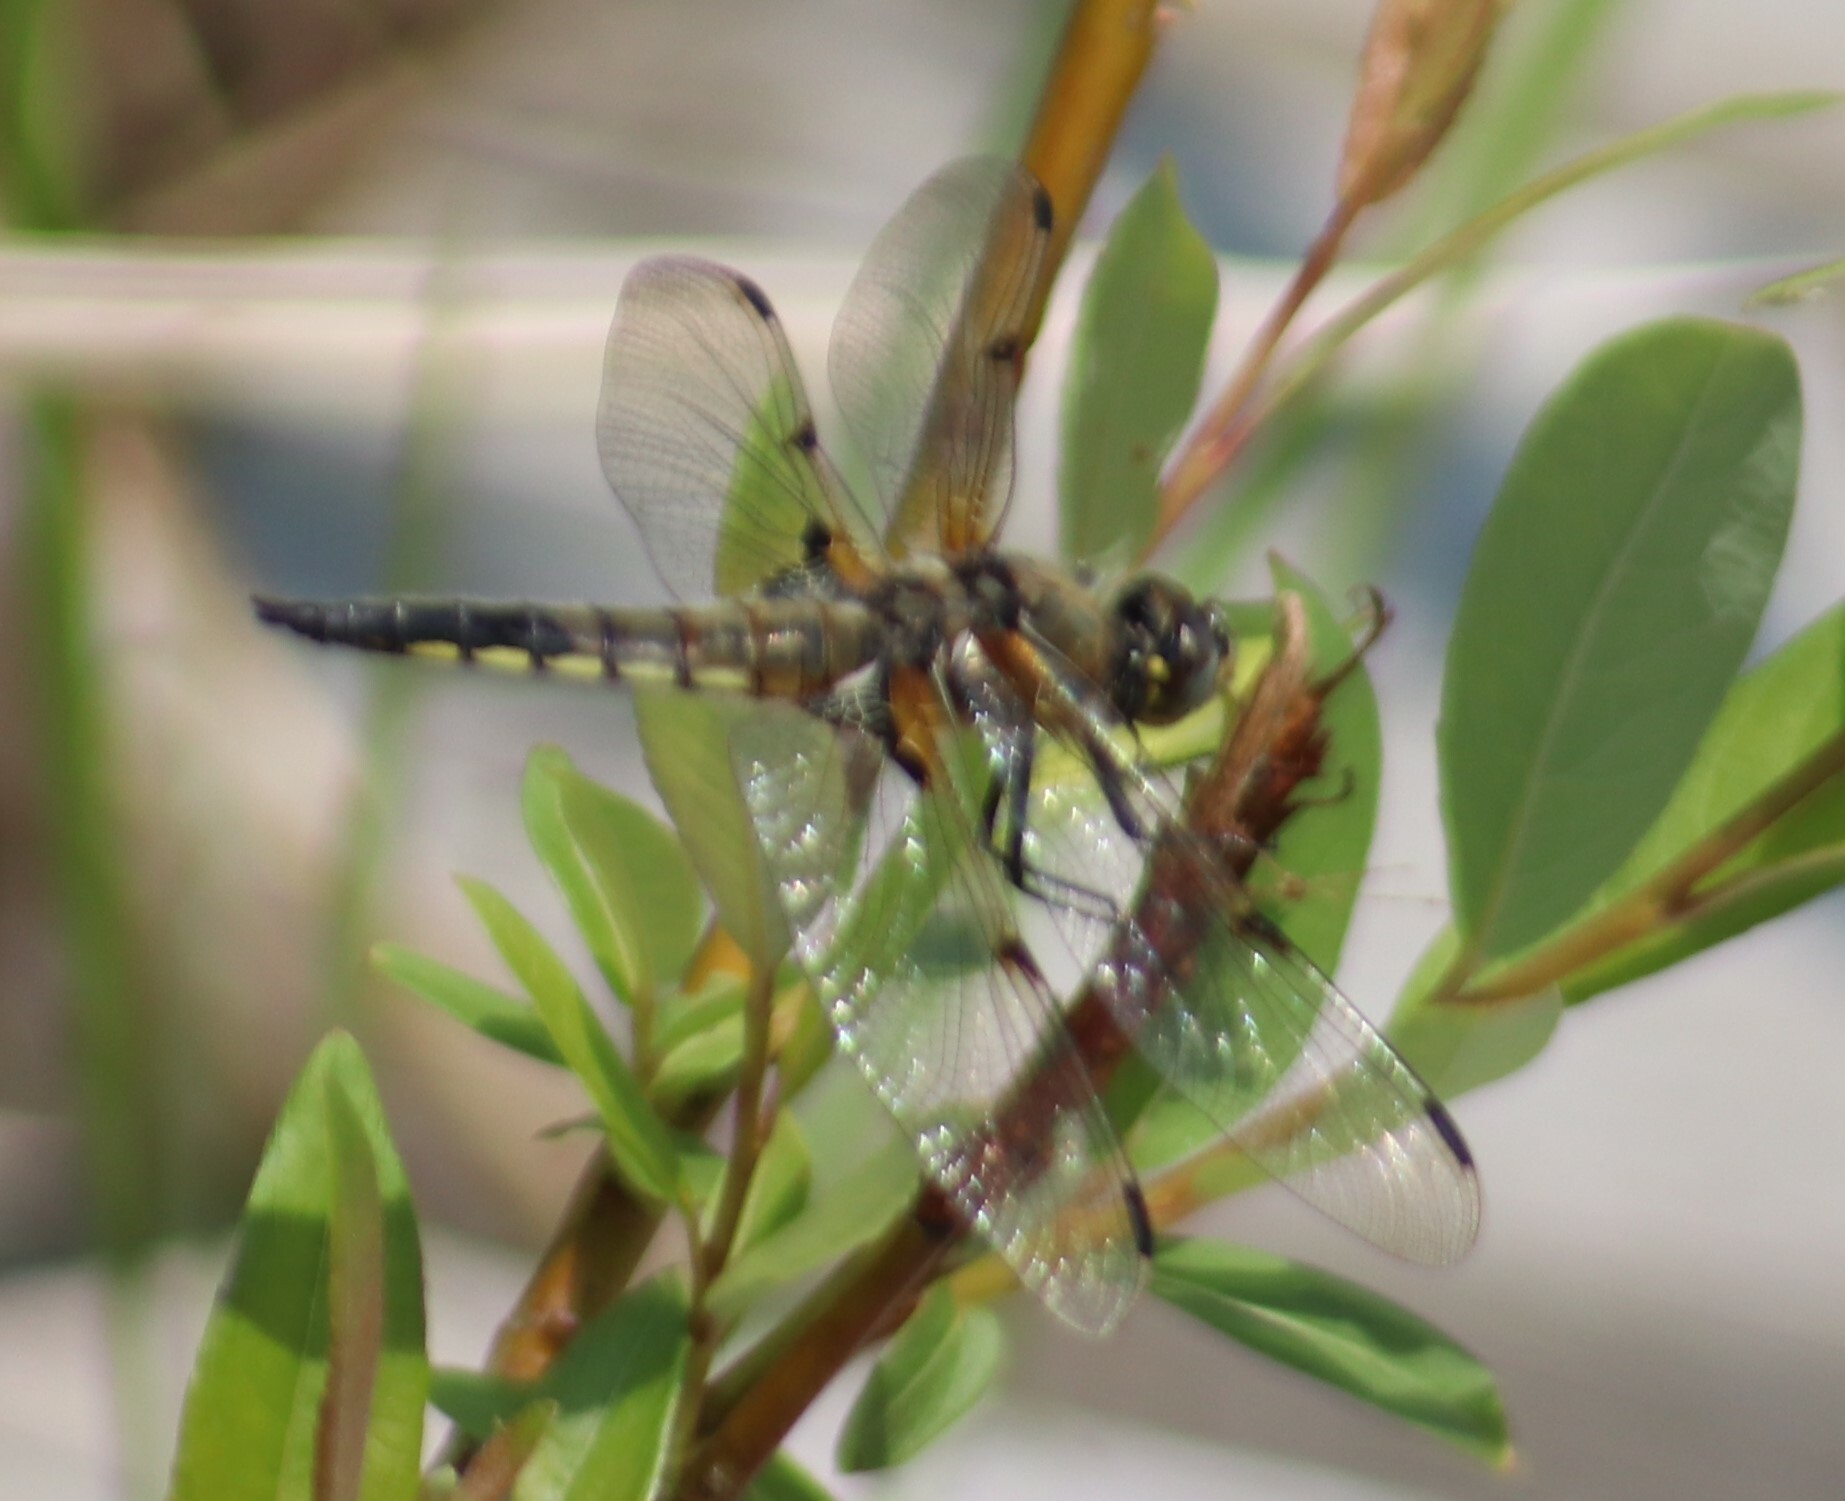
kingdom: Animalia
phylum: Arthropoda
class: Insecta
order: Odonata
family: Libellulidae
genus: Libellula
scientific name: Libellula quadrimaculata
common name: Four-spotted chaser
